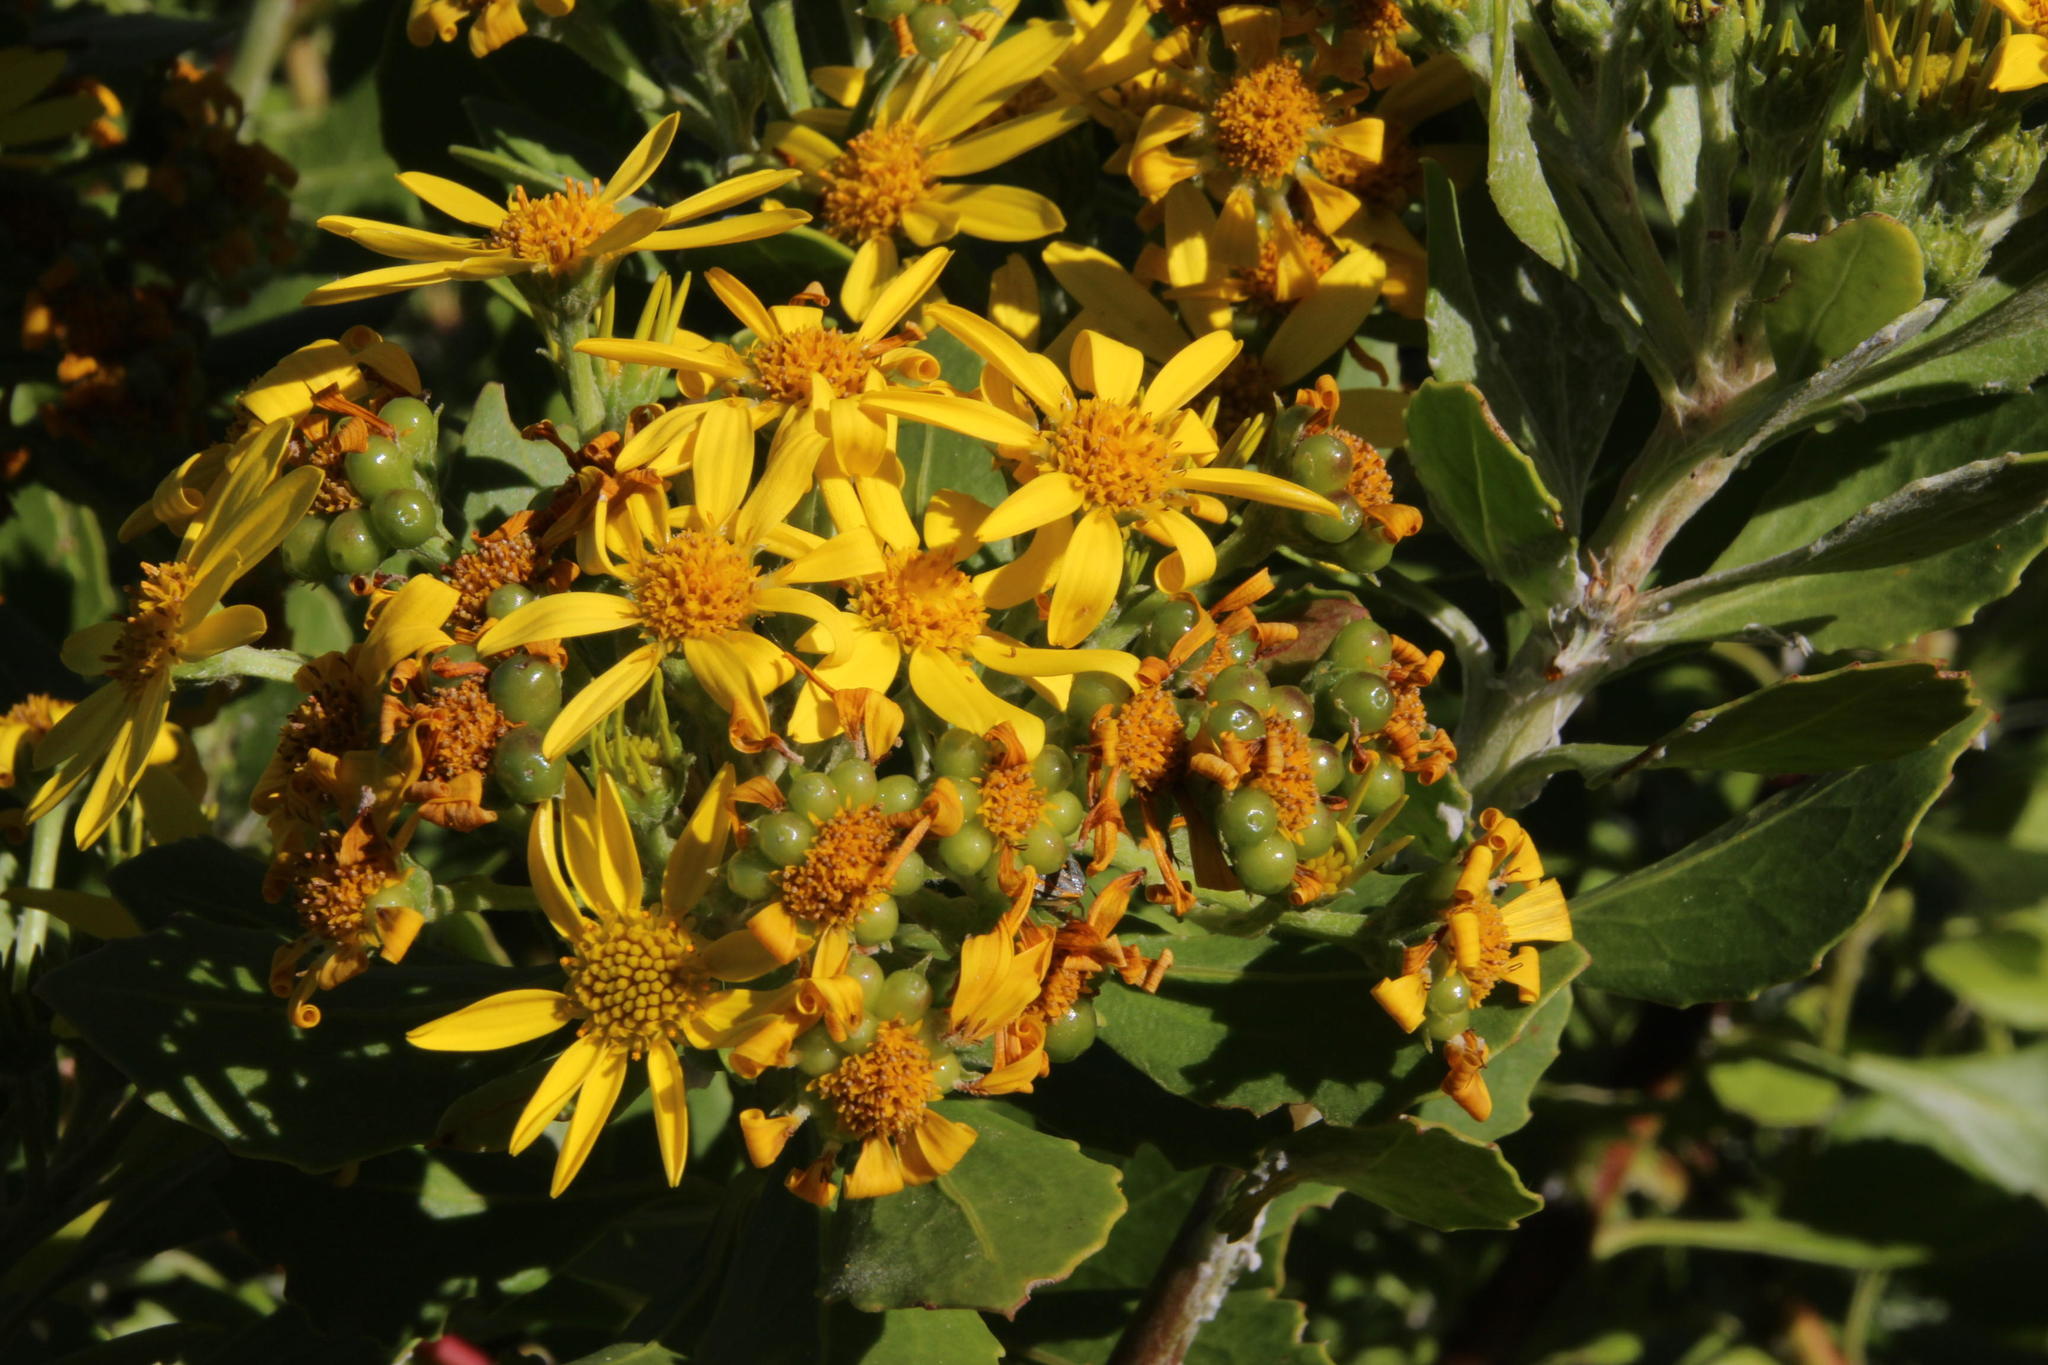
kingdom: Plantae
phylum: Tracheophyta
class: Magnoliopsida
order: Asterales
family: Asteraceae
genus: Osteospermum
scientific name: Osteospermum moniliferum
